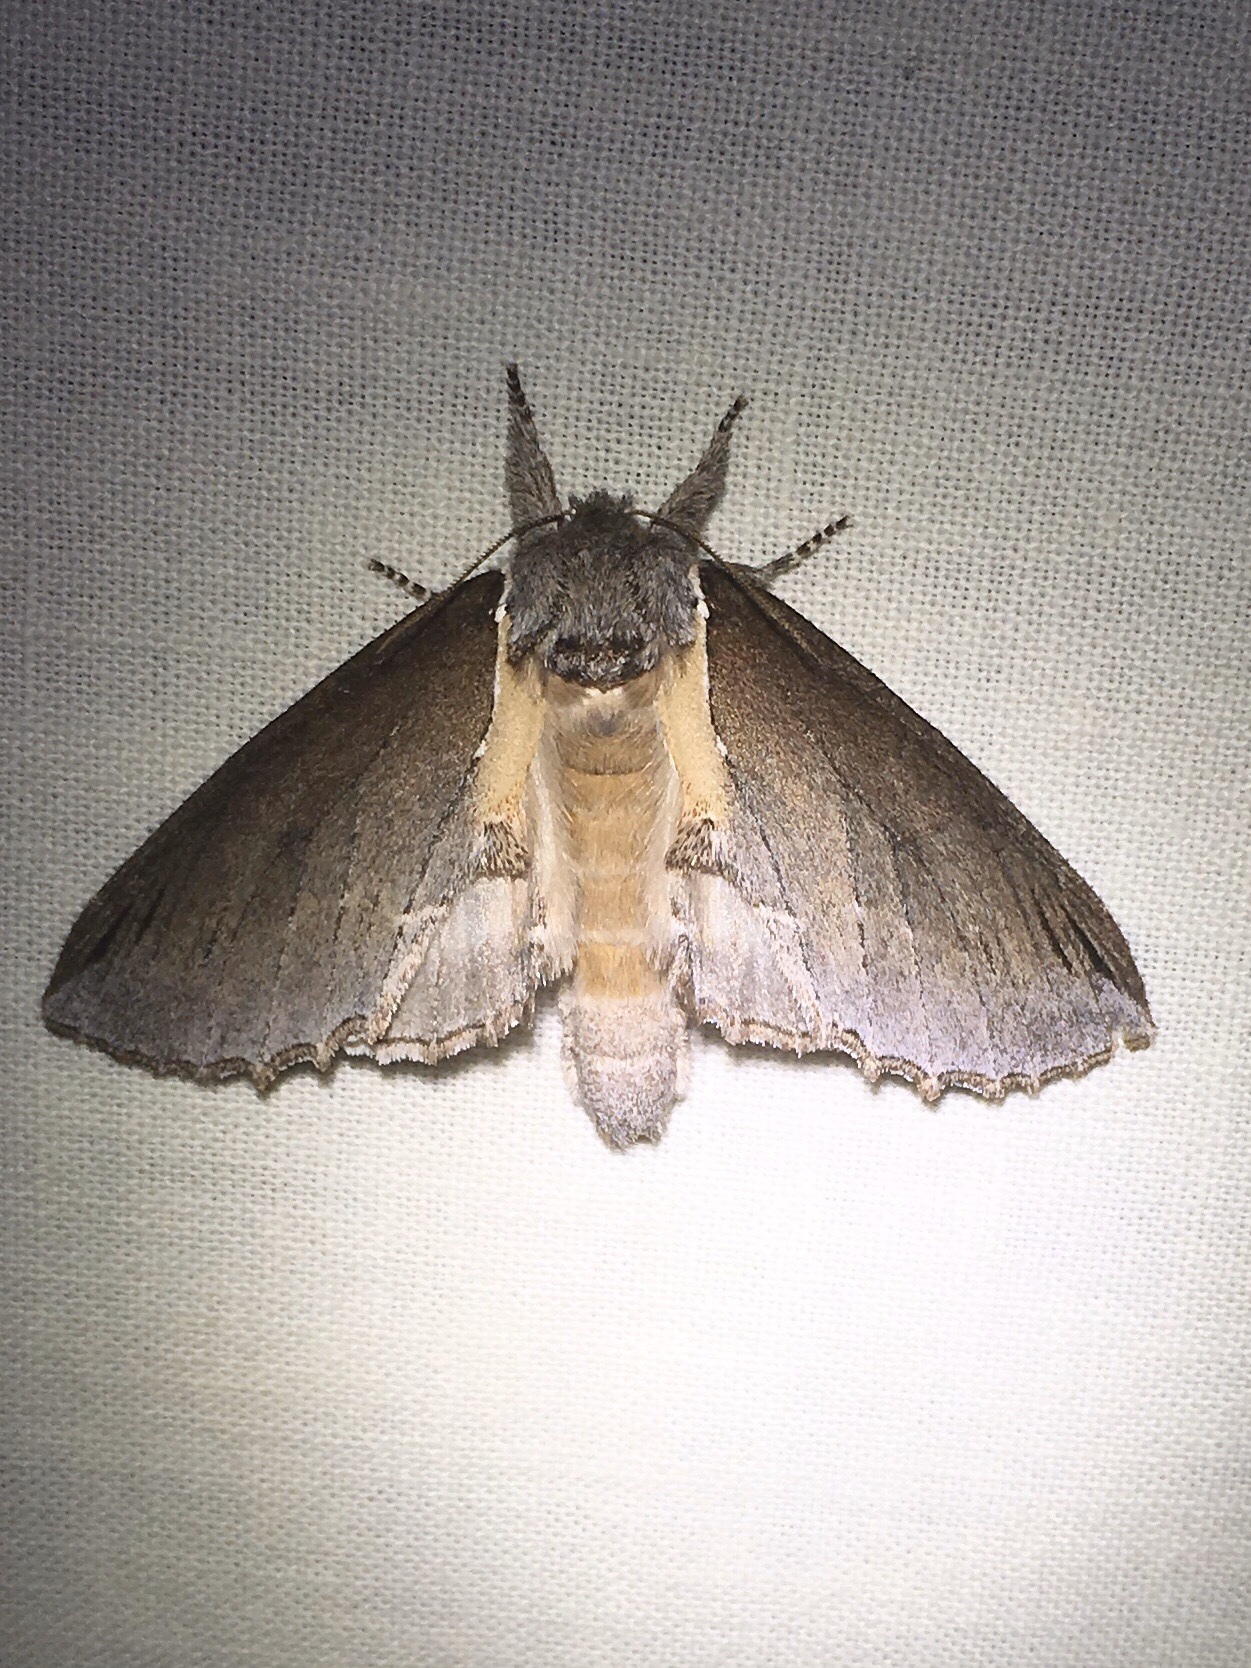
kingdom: Animalia
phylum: Arthropoda
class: Insecta
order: Lepidoptera
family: Notodontidae
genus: Pheosidea
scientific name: Pheosidea elegans
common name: Elegant prominent
